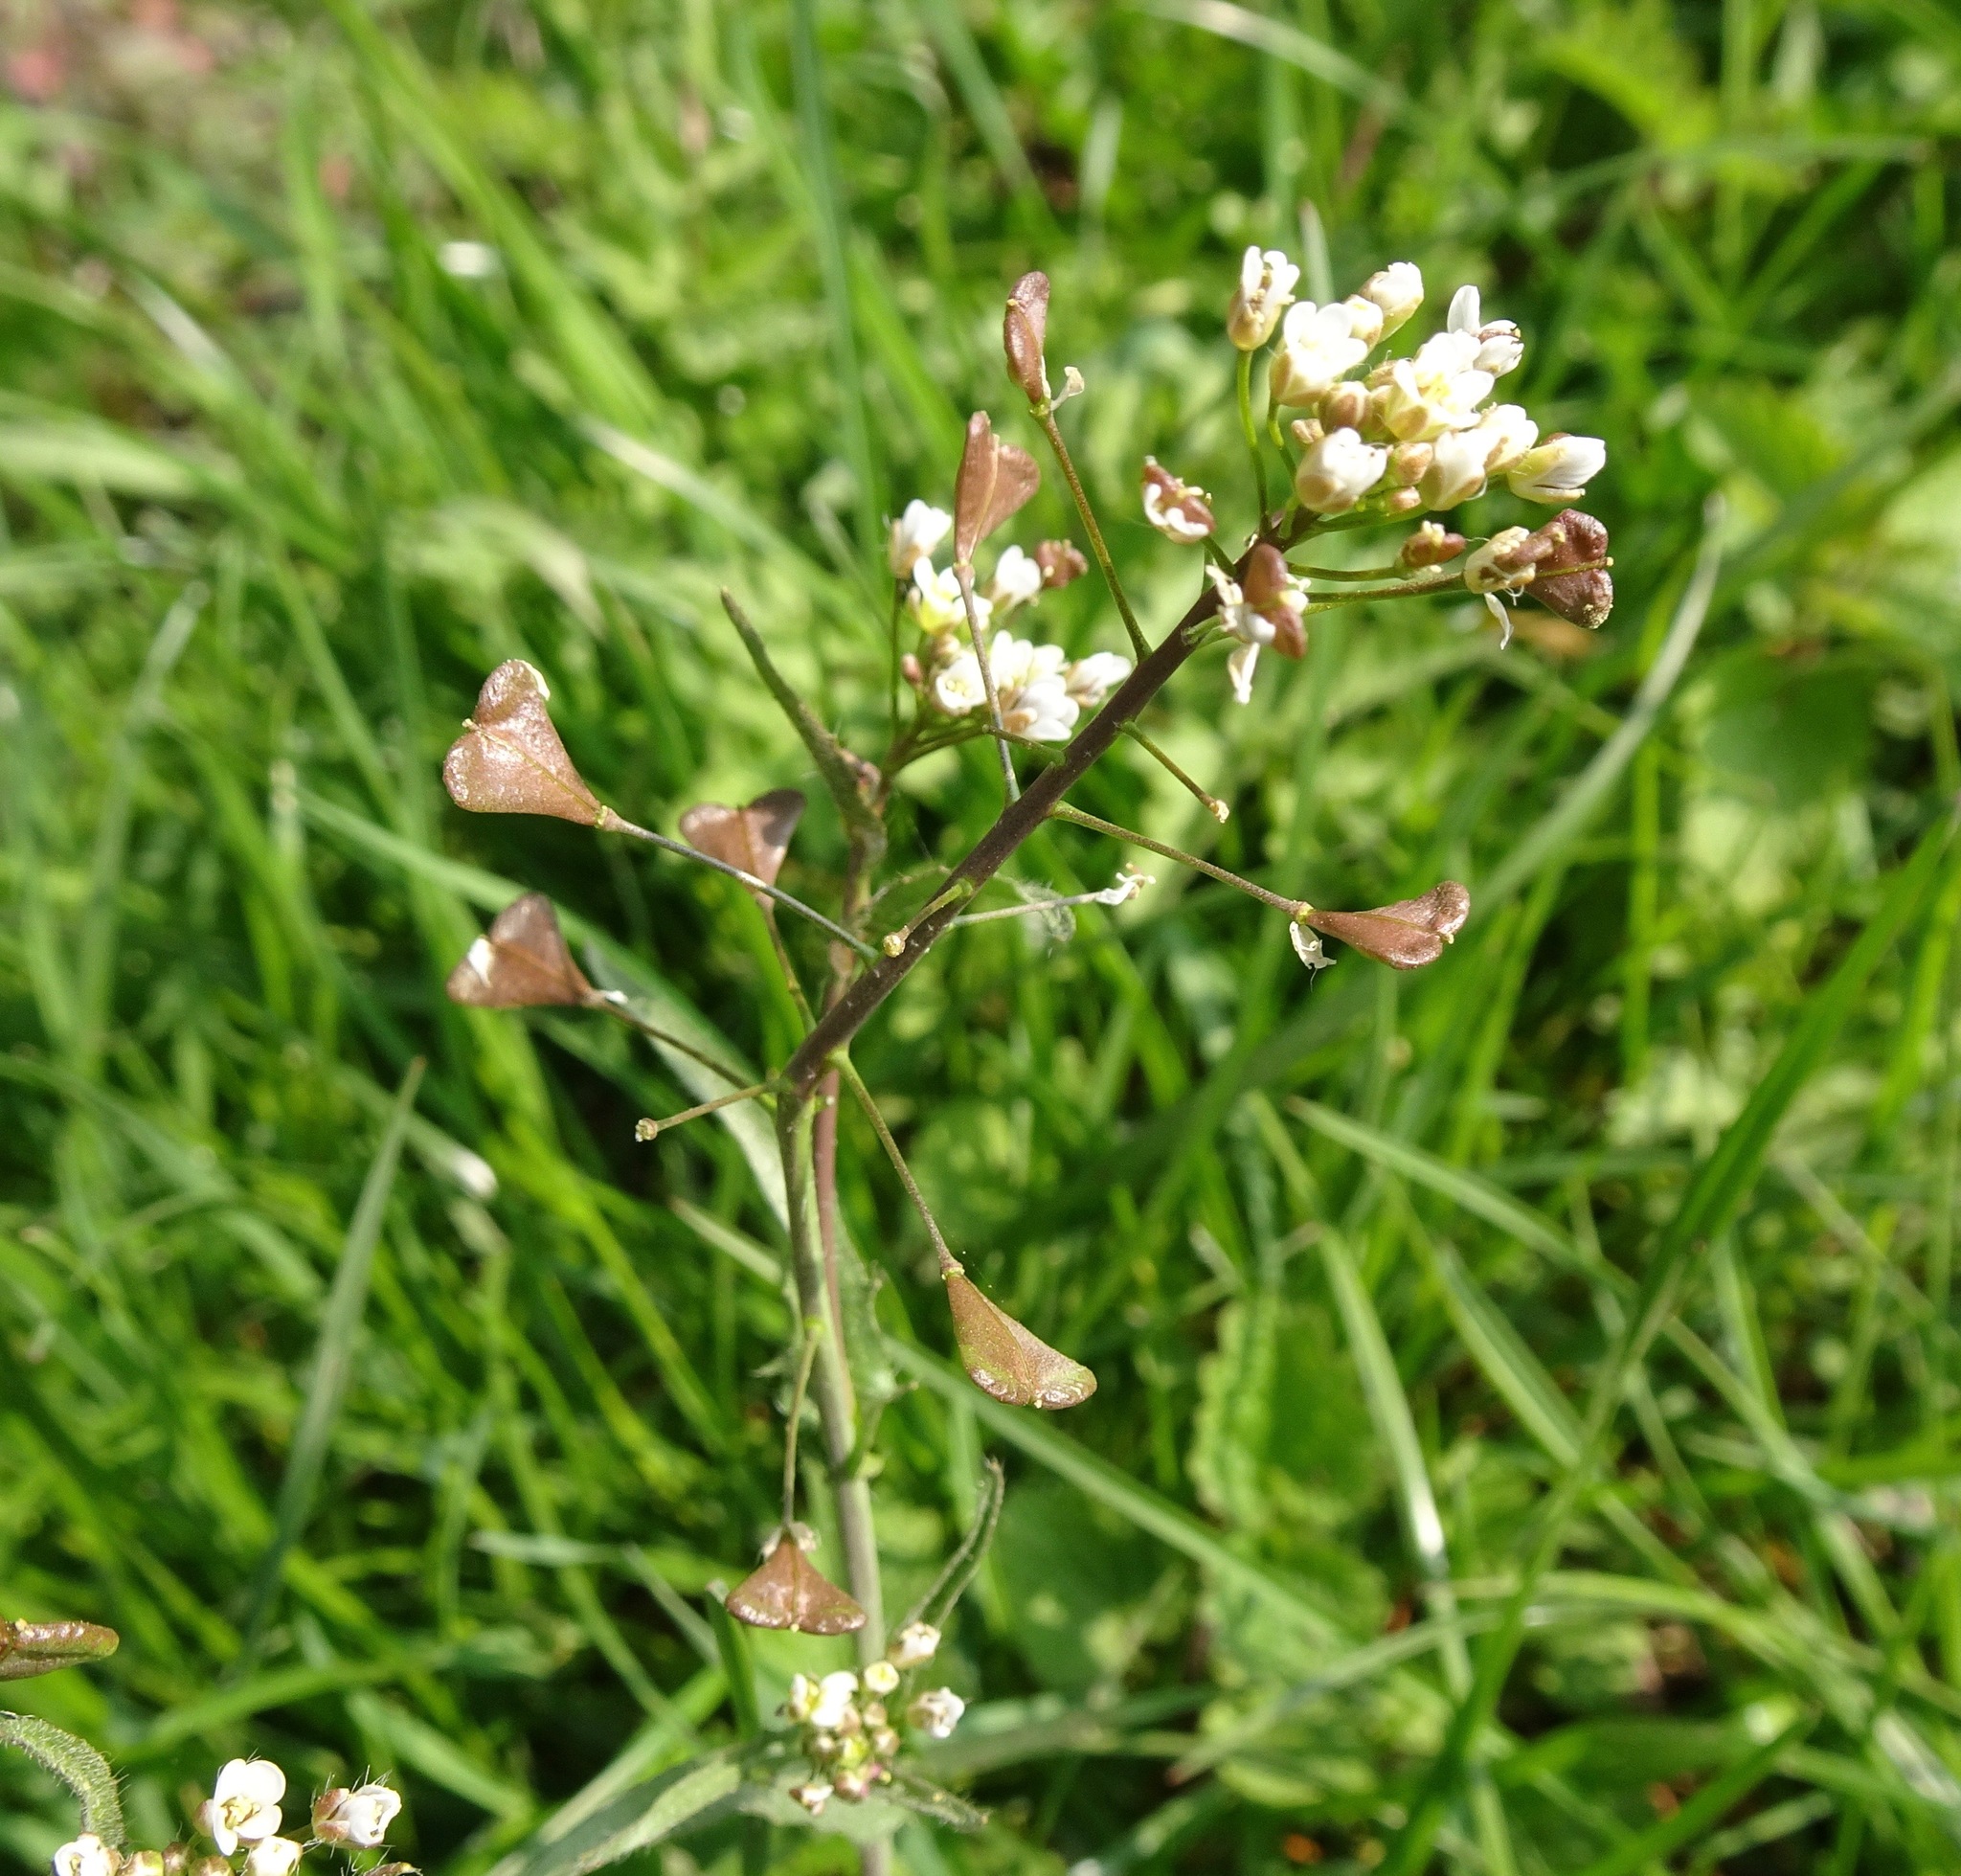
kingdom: Plantae
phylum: Tracheophyta
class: Magnoliopsida
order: Brassicales
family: Brassicaceae
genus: Capsella
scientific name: Capsella bursa-pastoris
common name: Shepherd's purse
